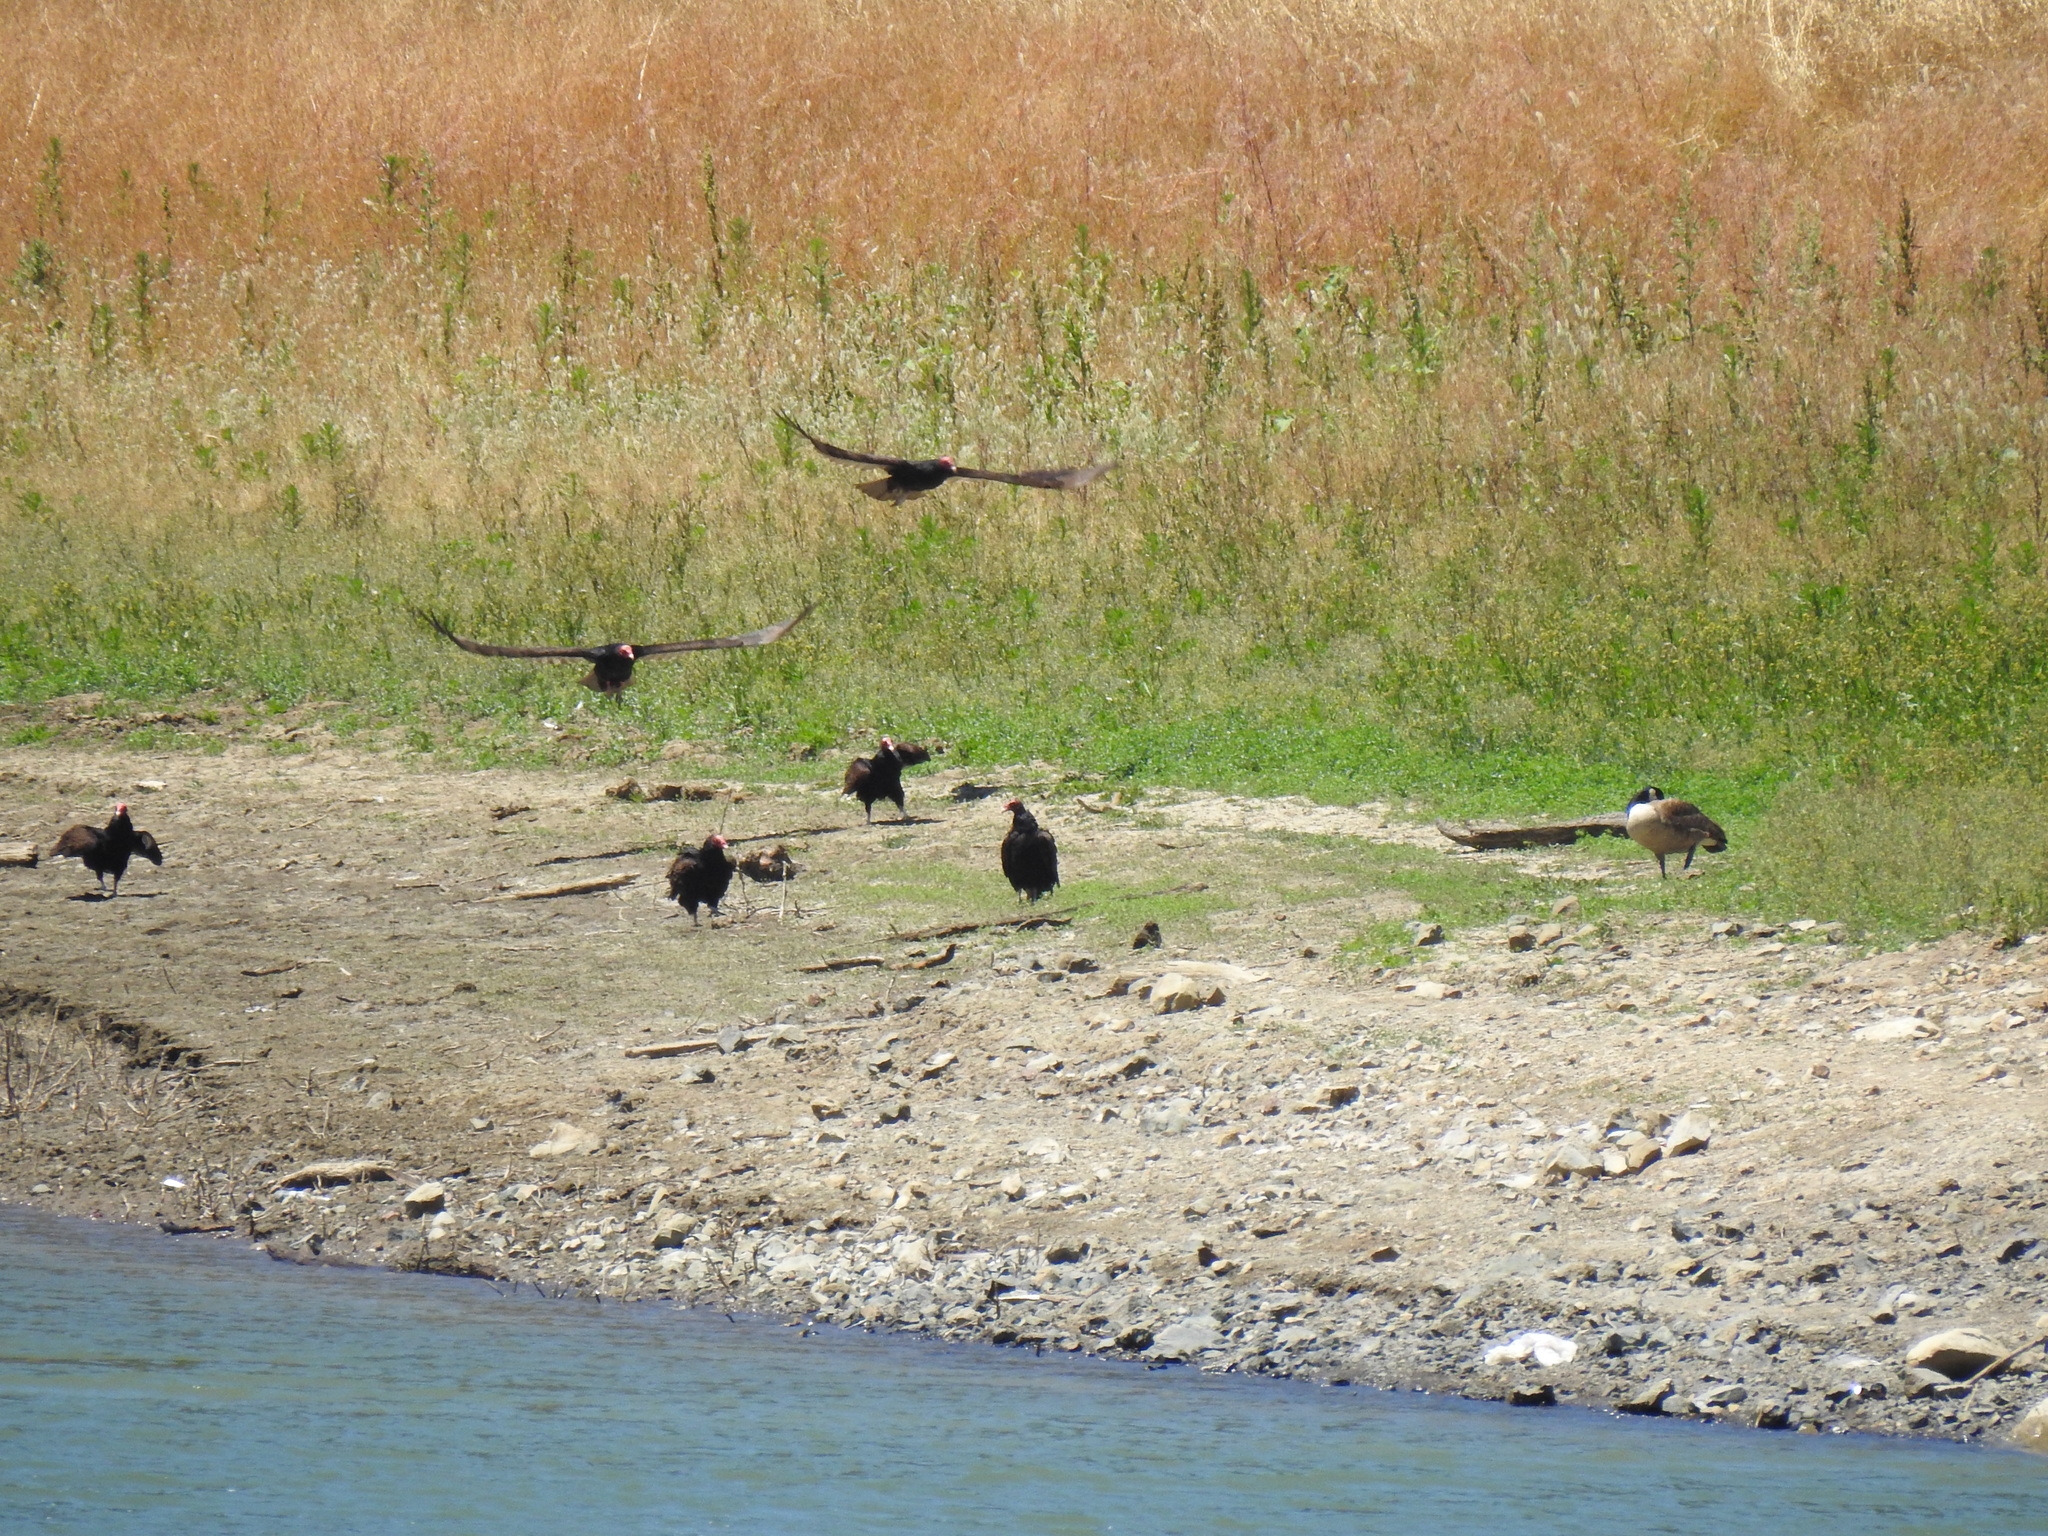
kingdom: Animalia
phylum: Chordata
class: Aves
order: Accipitriformes
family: Cathartidae
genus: Cathartes
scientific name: Cathartes aura
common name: Turkey vulture
